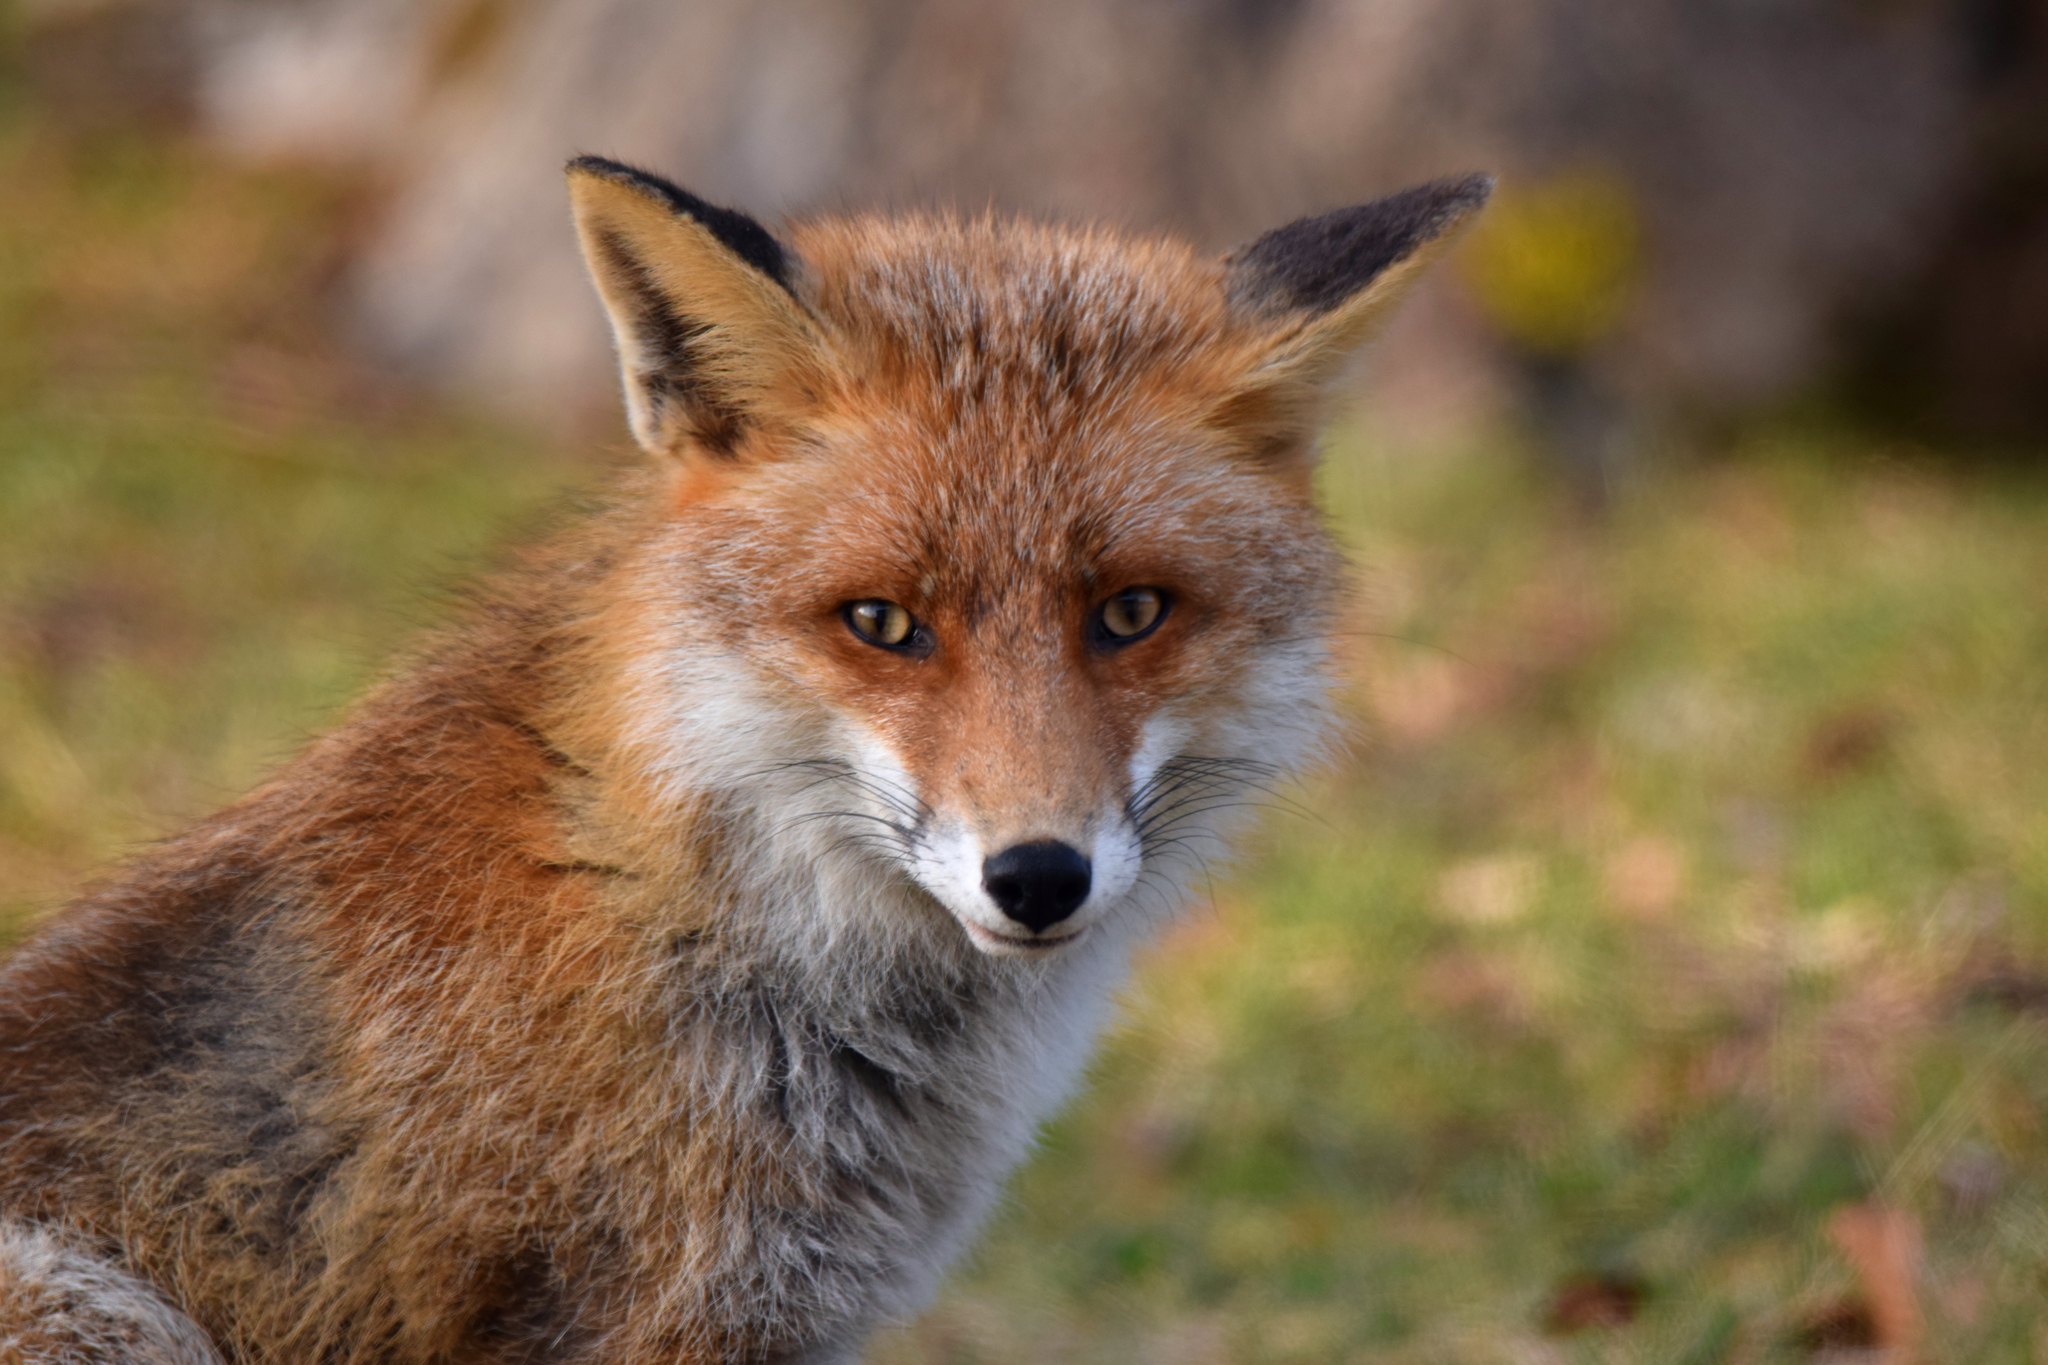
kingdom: Animalia
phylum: Chordata
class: Mammalia
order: Carnivora
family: Canidae
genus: Vulpes
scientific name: Vulpes vulpes
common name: Red fox
